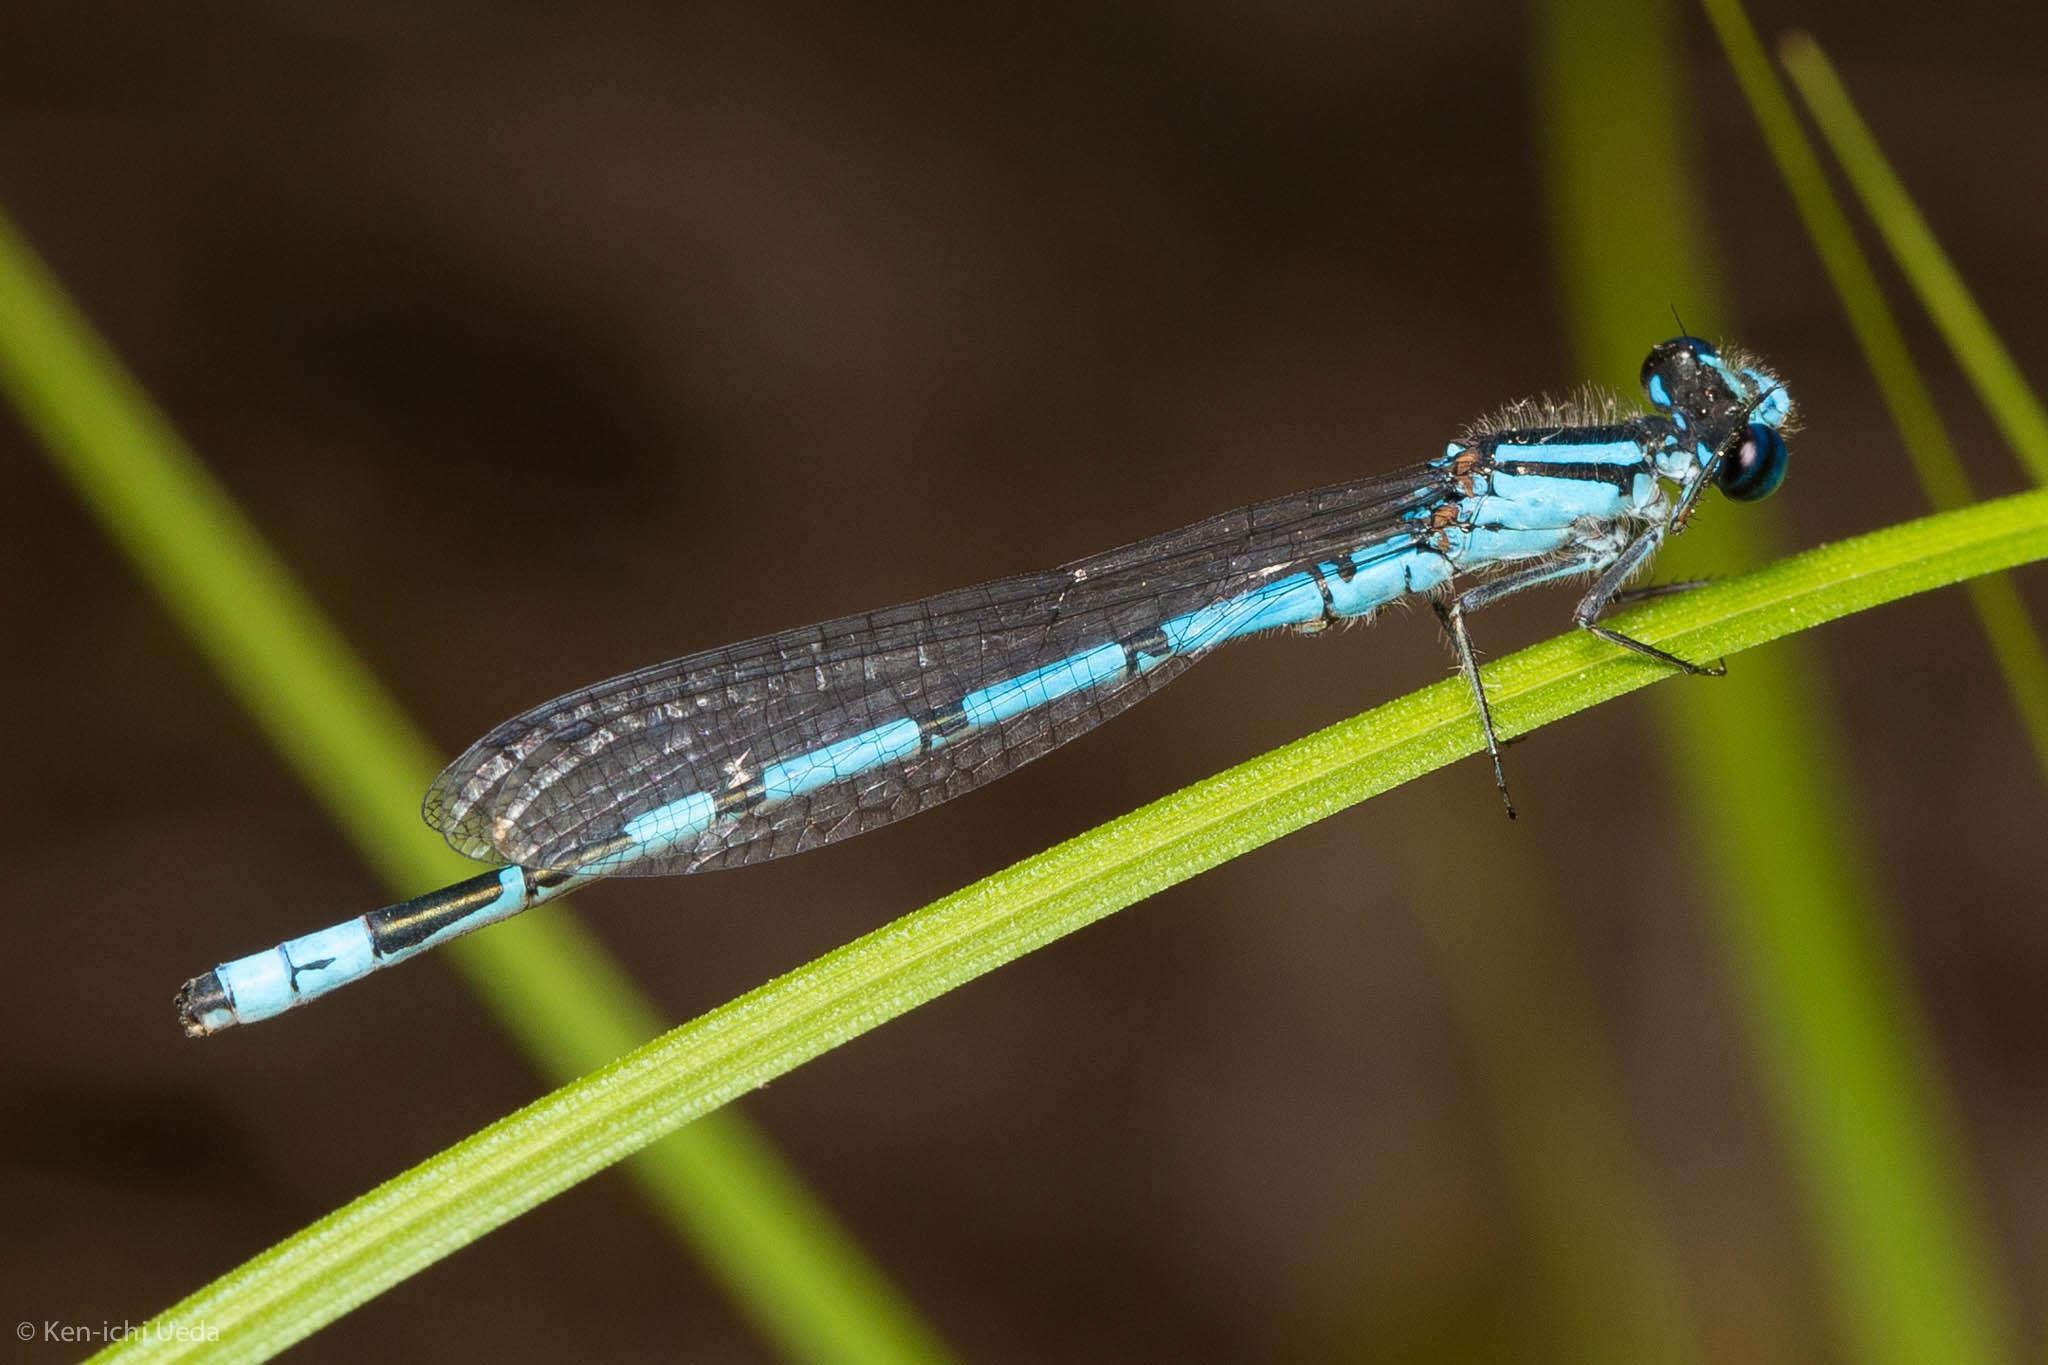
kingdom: Animalia
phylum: Arthropoda
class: Insecta
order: Odonata
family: Coenagrionidae
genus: Enallagma
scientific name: Enallagma laterale
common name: New england bluet
